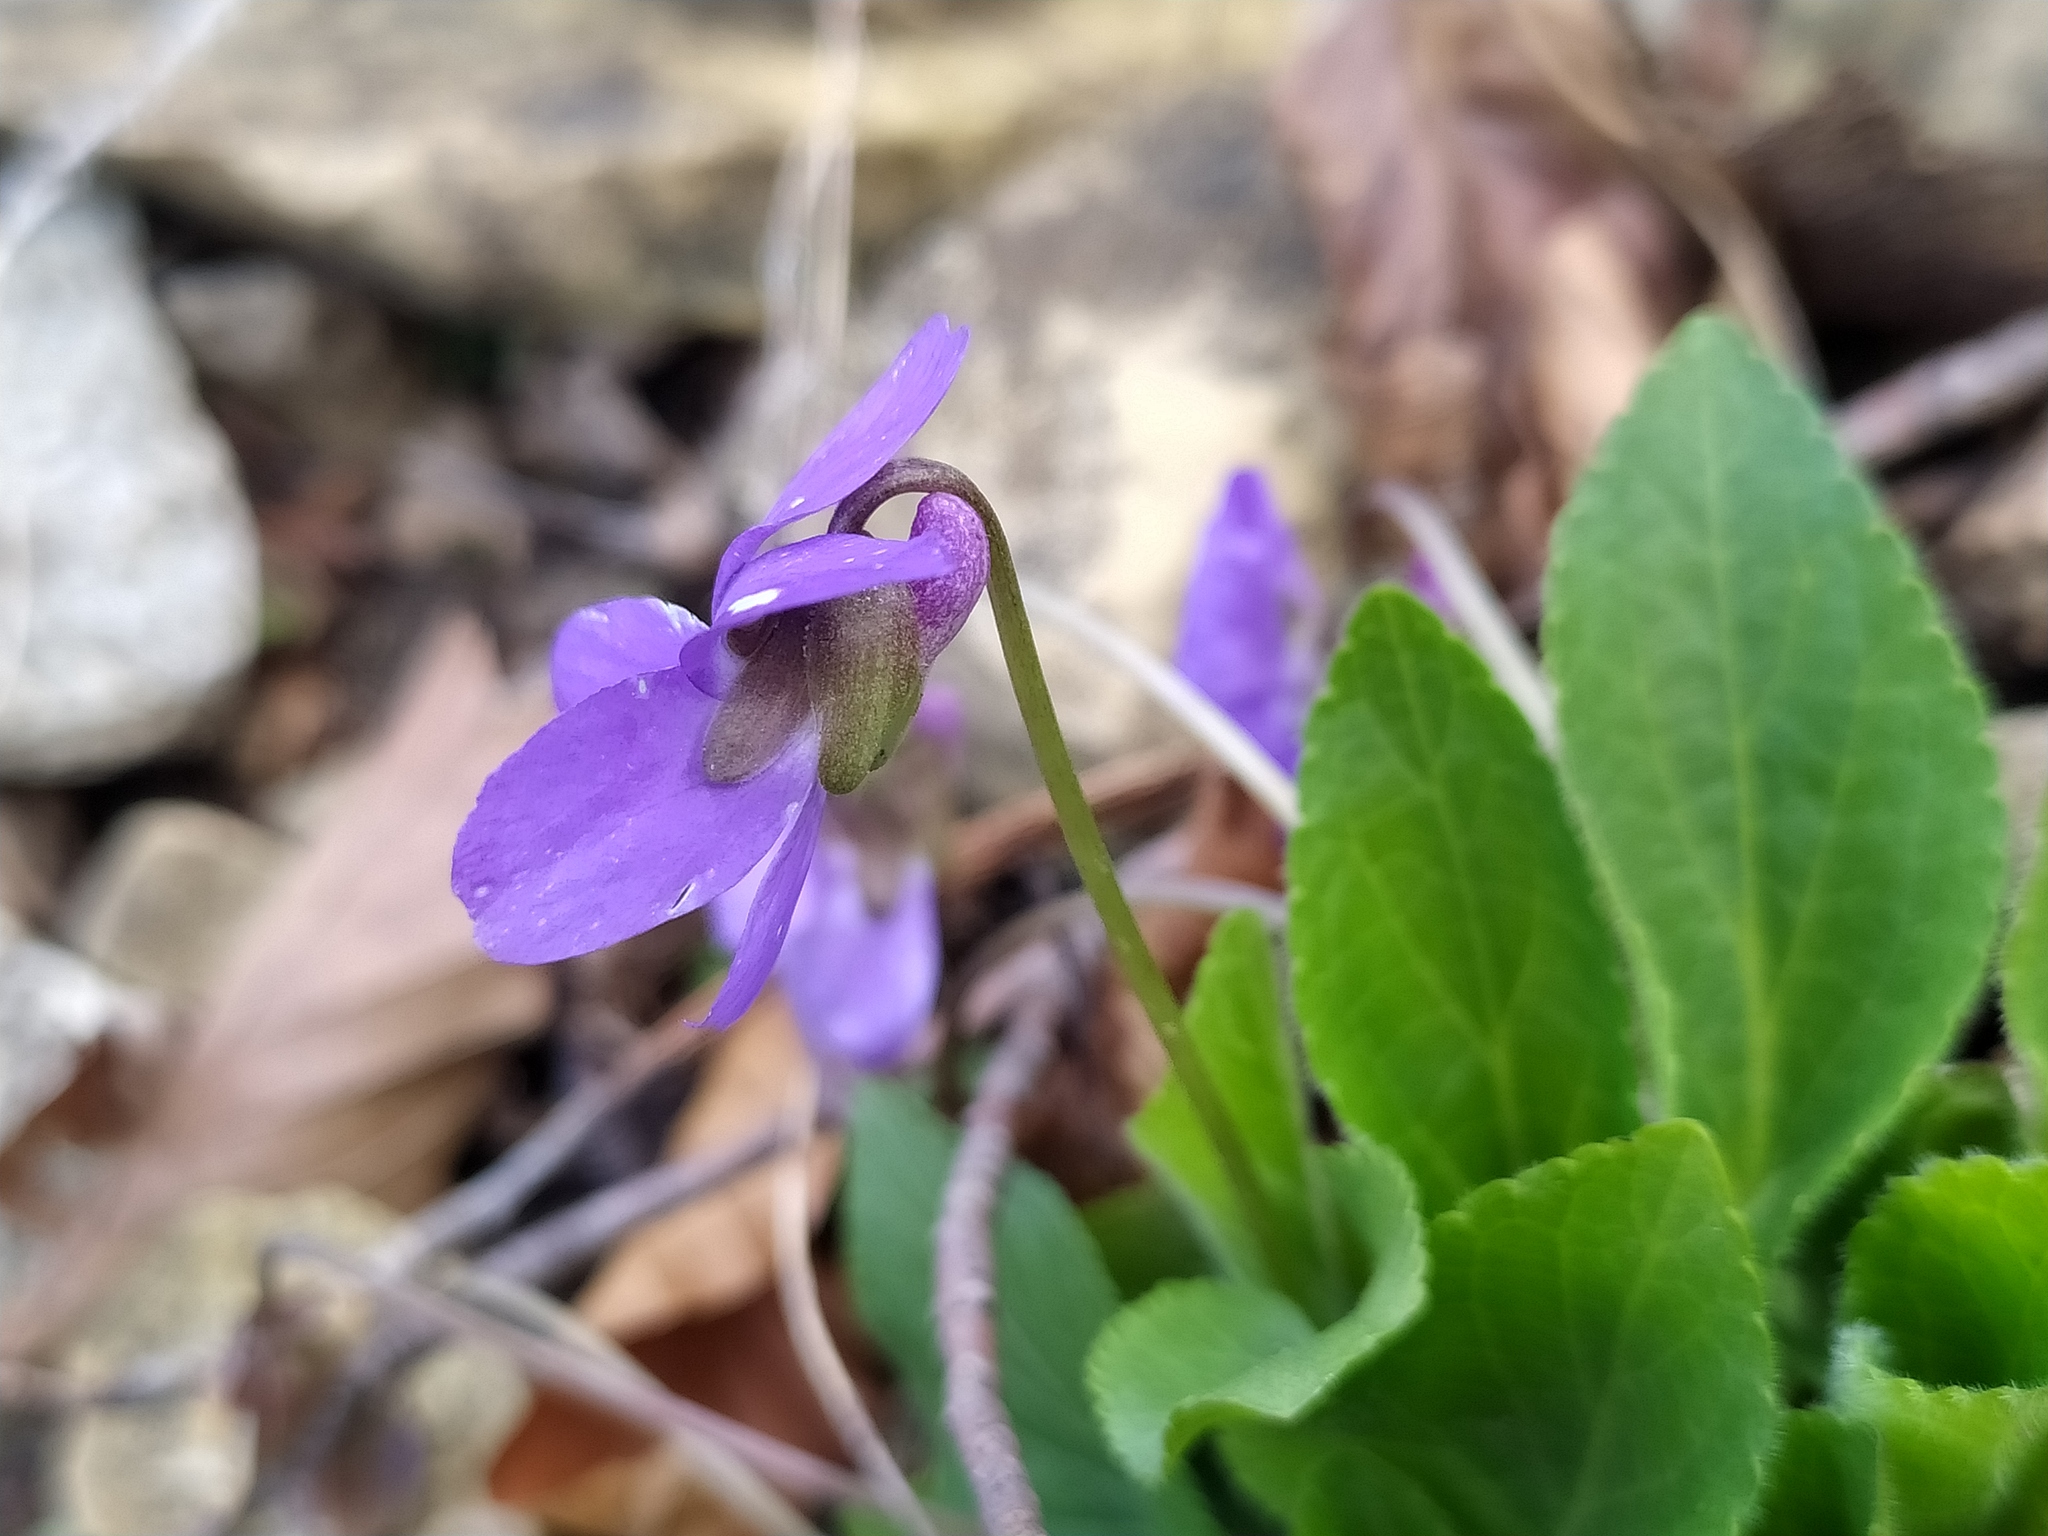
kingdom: Plantae
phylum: Tracheophyta
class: Magnoliopsida
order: Malpighiales
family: Violaceae
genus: Viola
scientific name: Viola hirta
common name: Hairy violet
